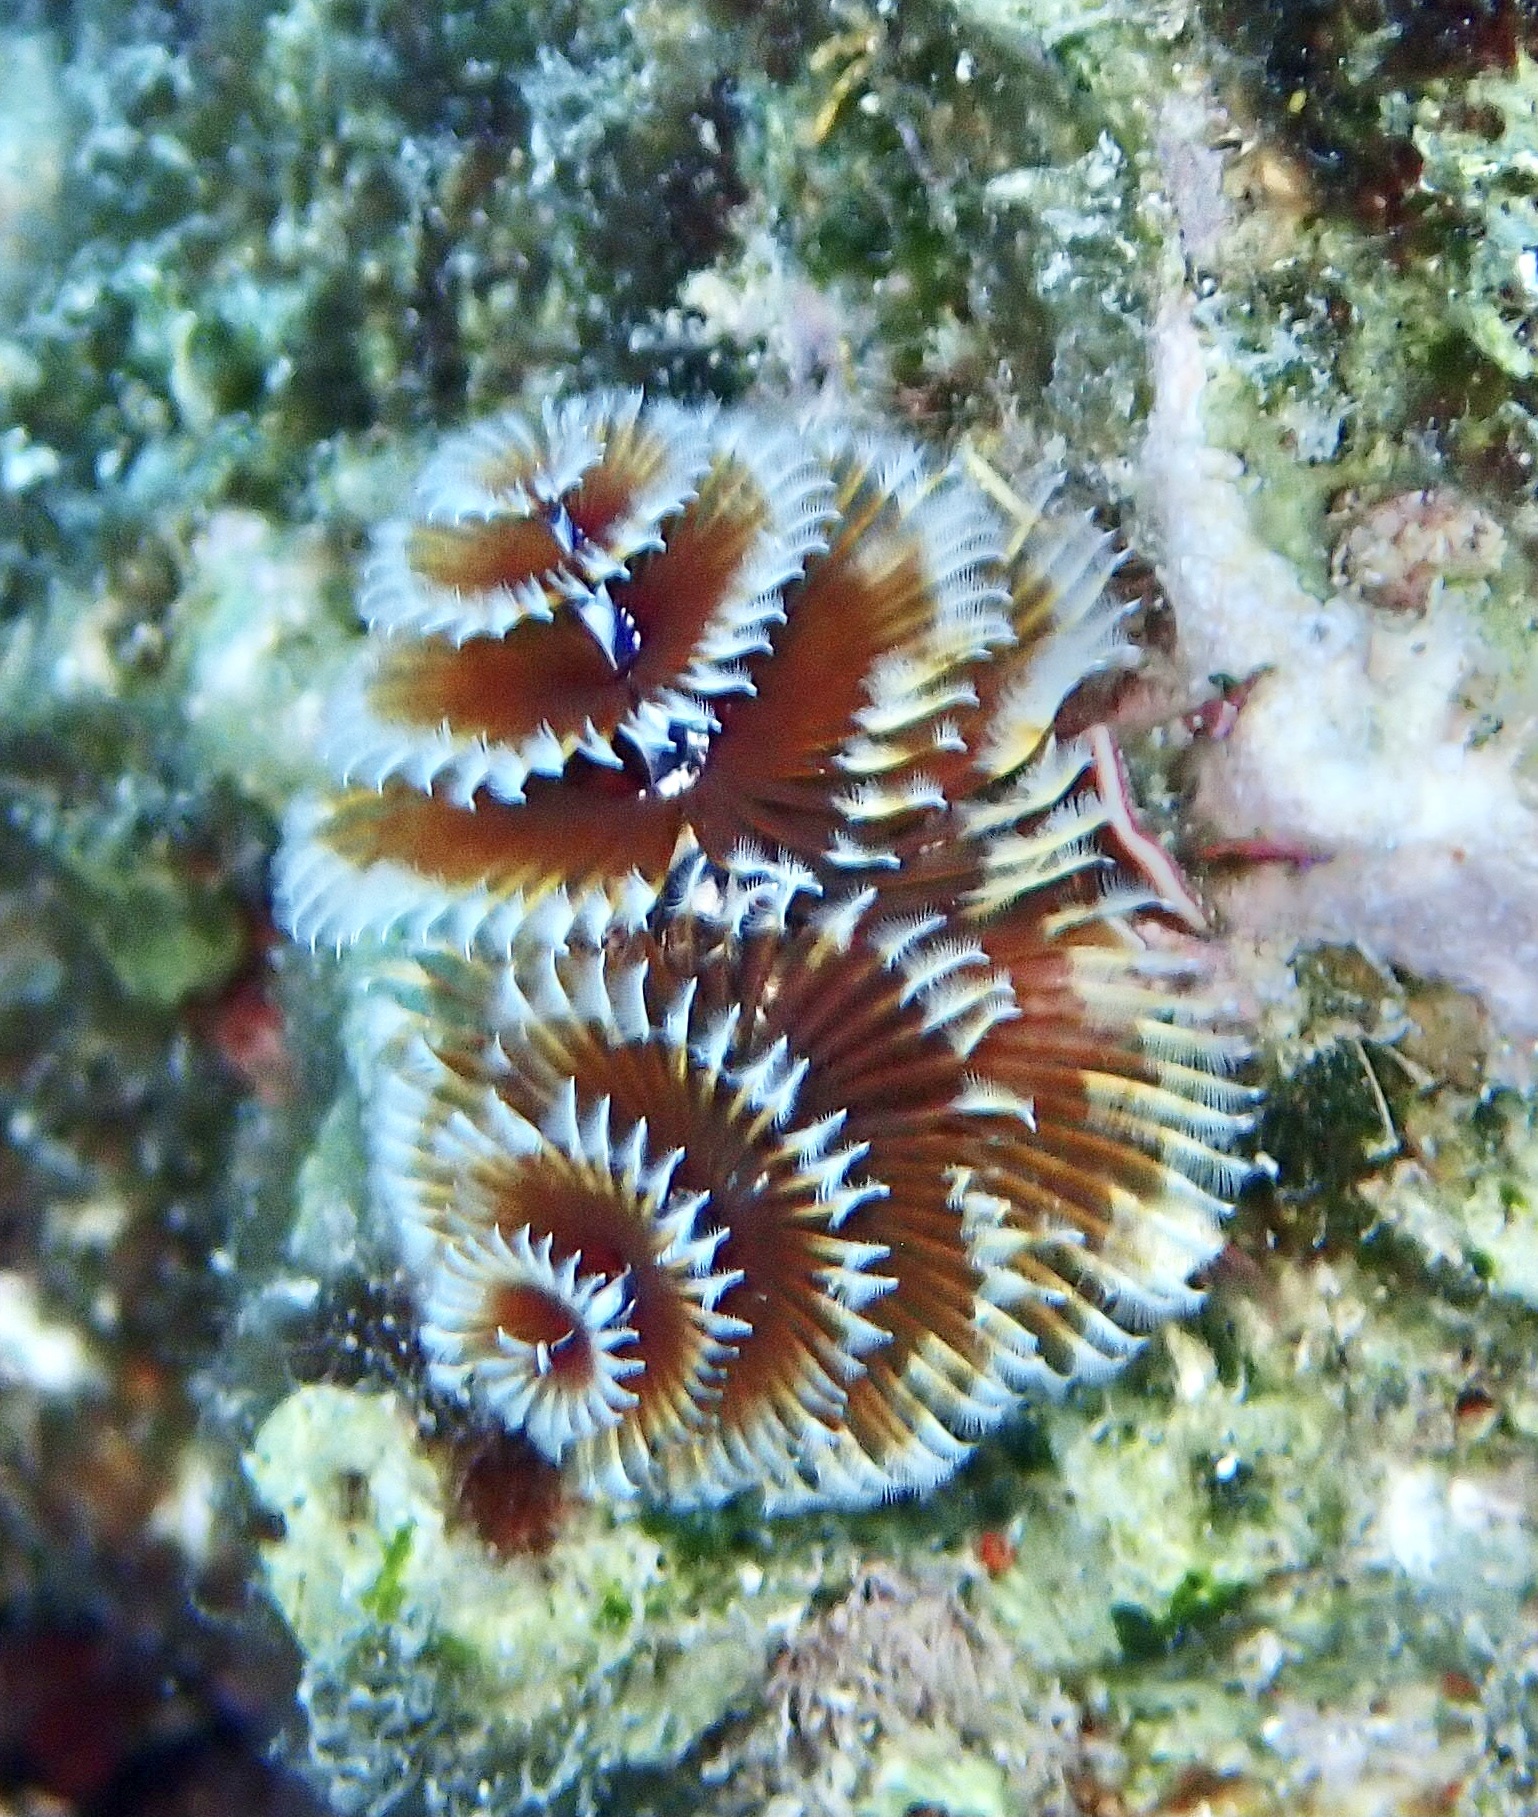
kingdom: Animalia
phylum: Annelida
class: Polychaeta
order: Sabellida
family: Serpulidae
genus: Spirobranchus
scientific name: Spirobranchus giganteus
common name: Christmas tree worm
